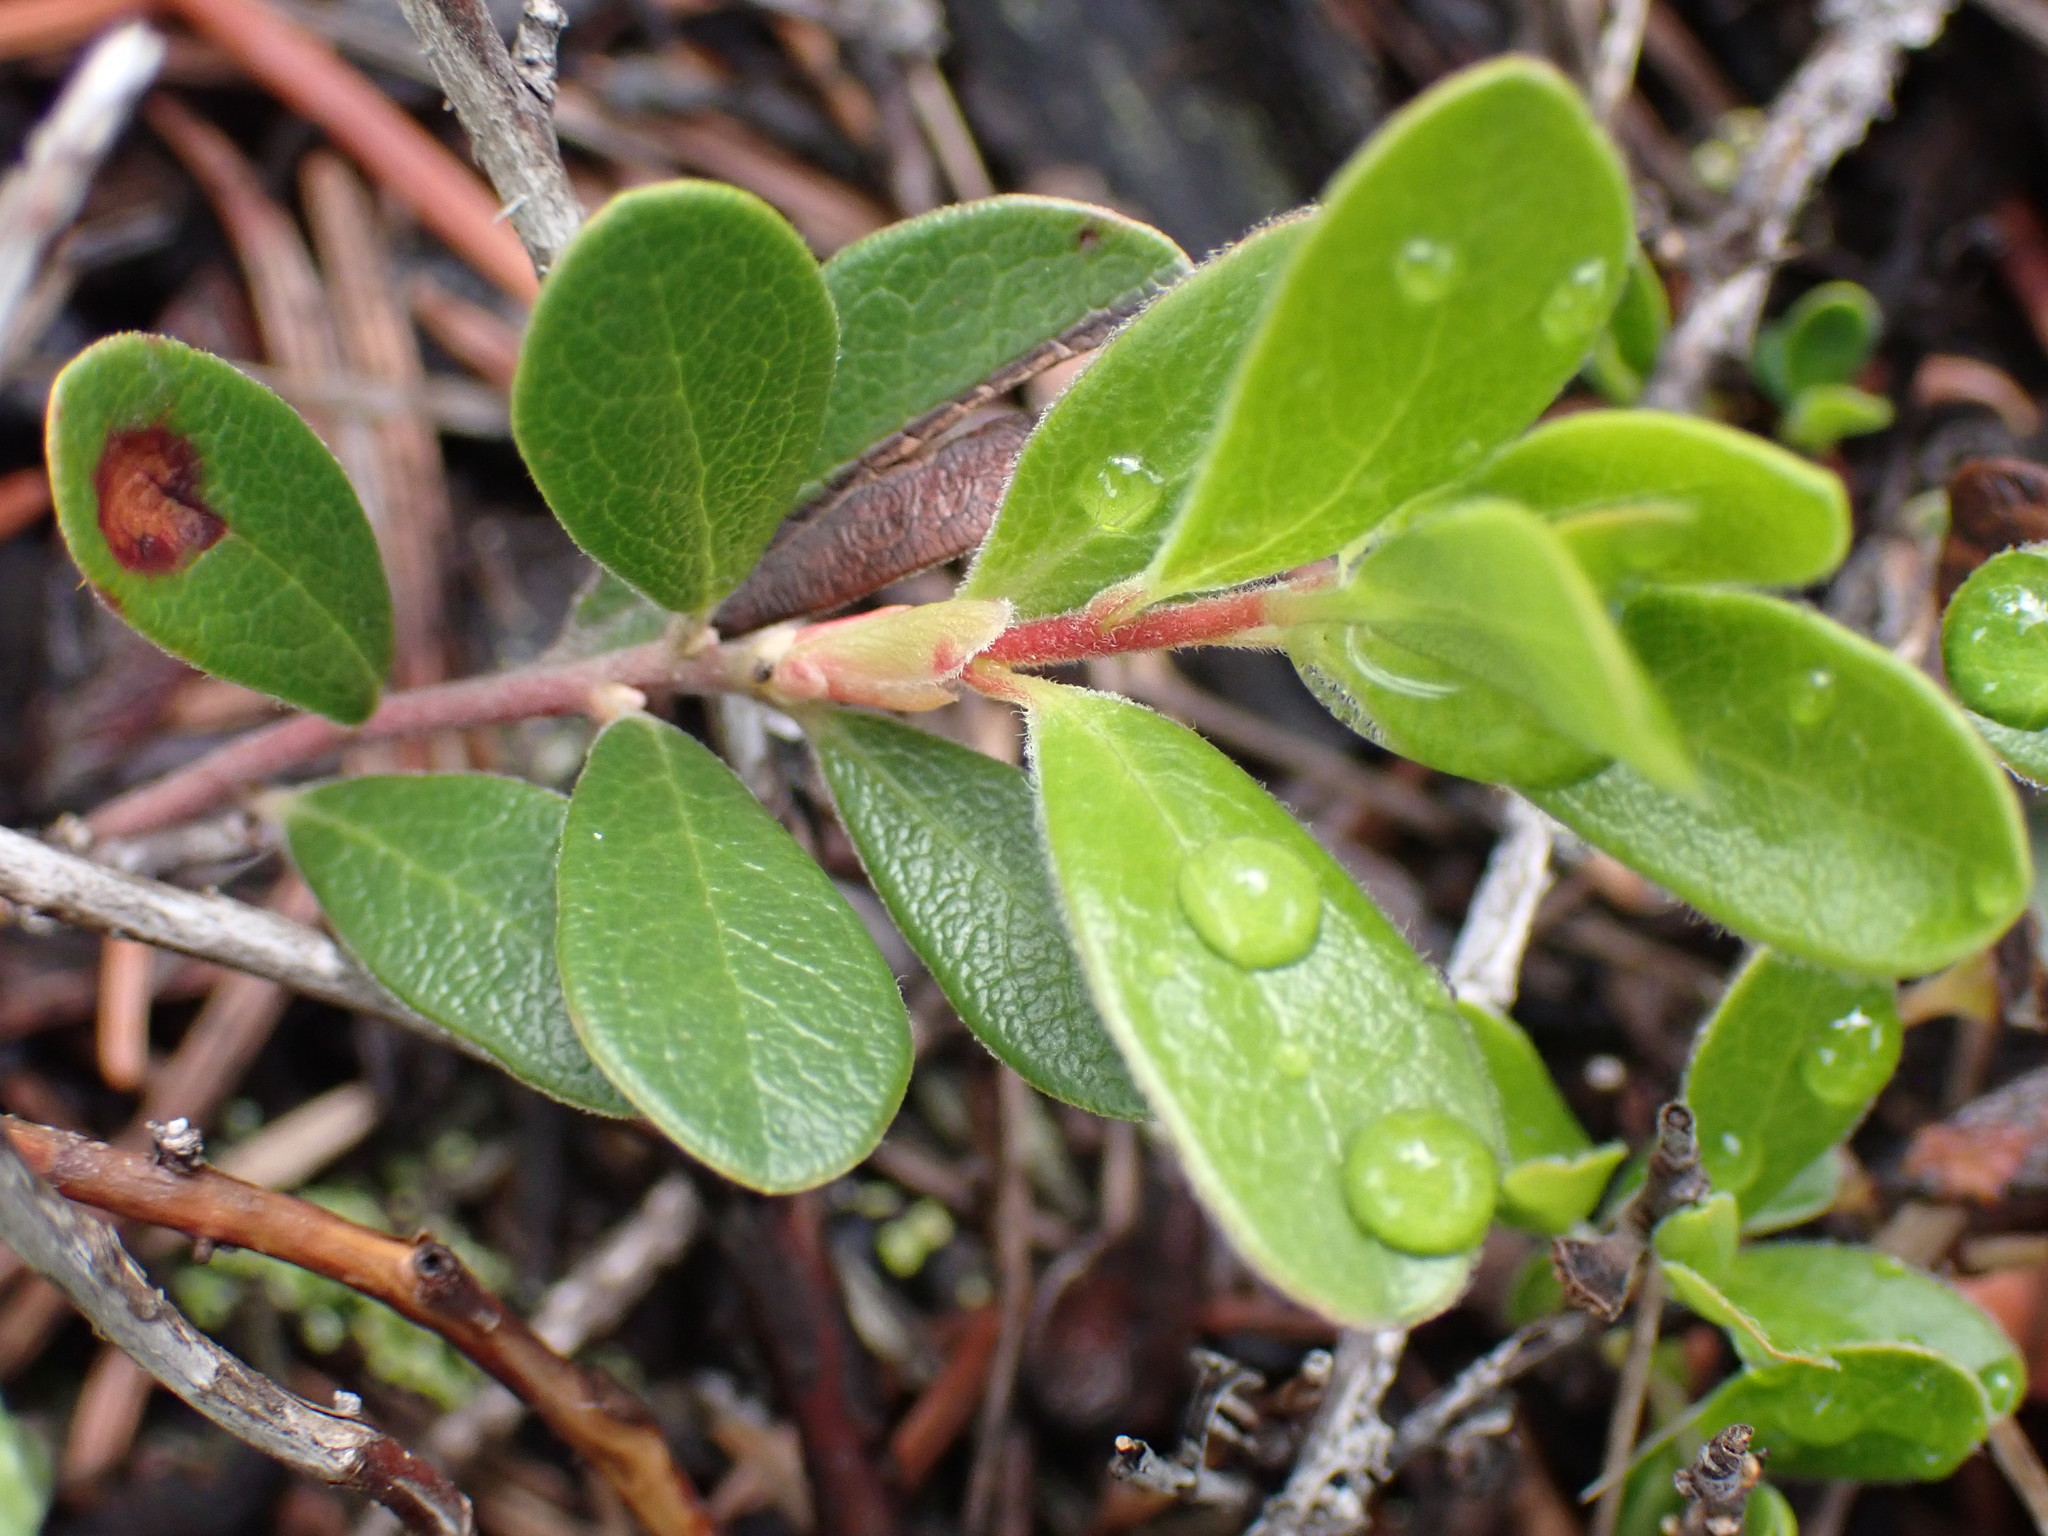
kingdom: Plantae
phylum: Tracheophyta
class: Magnoliopsida
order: Ericales
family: Ericaceae
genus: Arctostaphylos
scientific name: Arctostaphylos uva-ursi
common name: Bearberry
